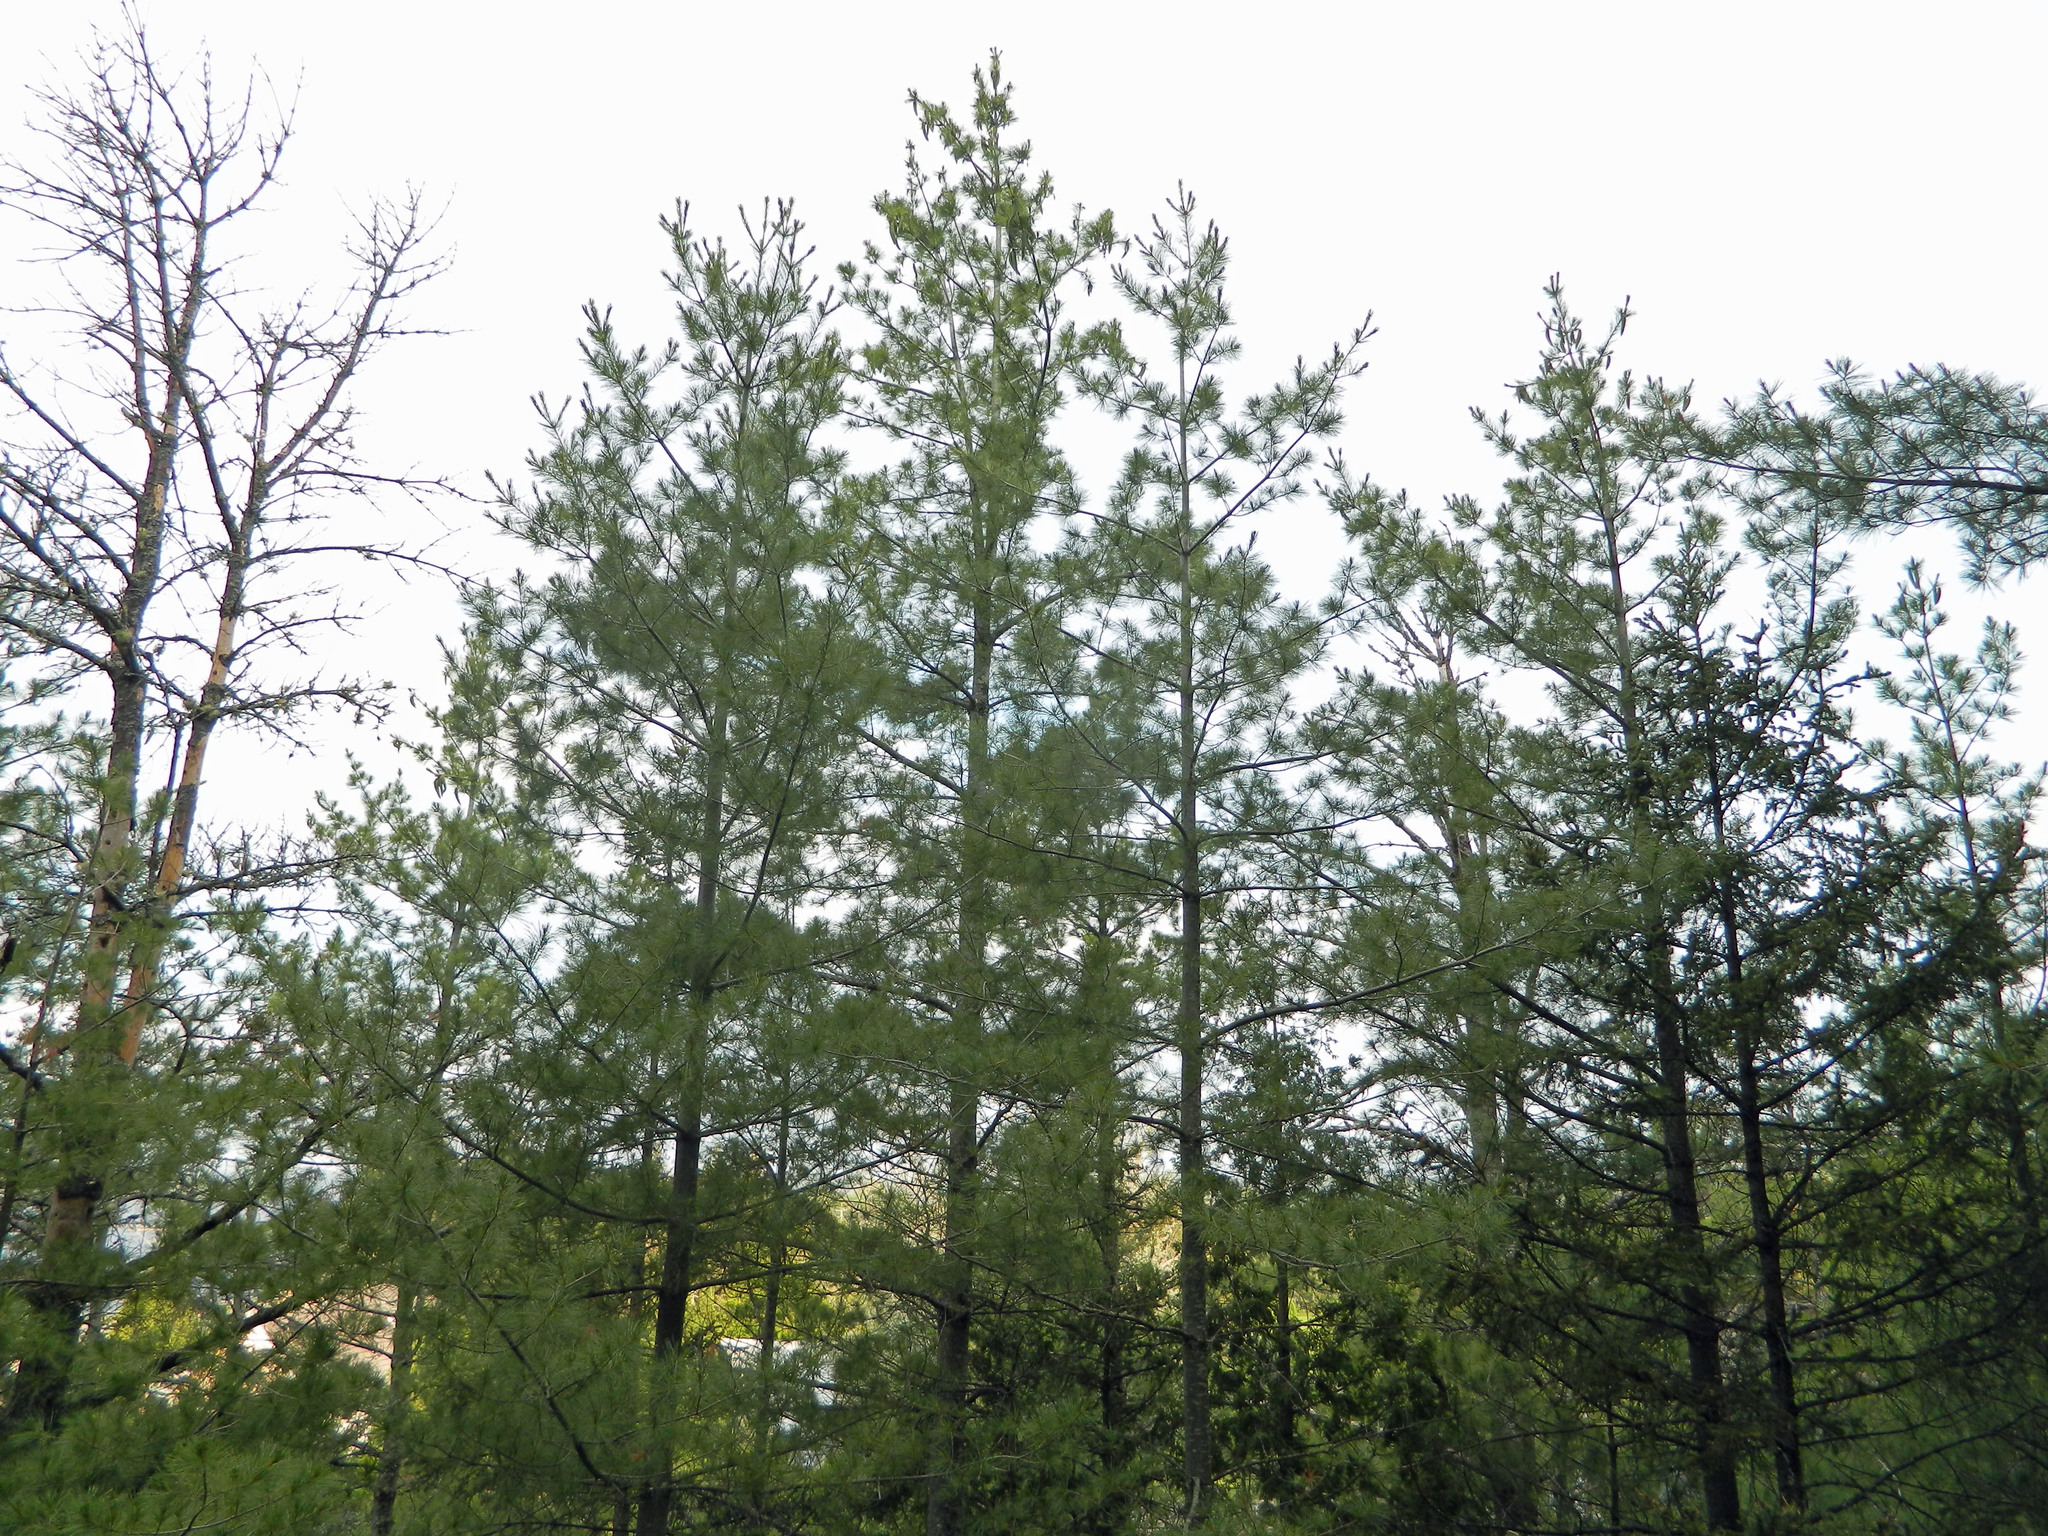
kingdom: Plantae
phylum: Tracheophyta
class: Pinopsida
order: Pinales
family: Pinaceae
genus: Pinus
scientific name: Pinus strobus
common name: Weymouth pine
